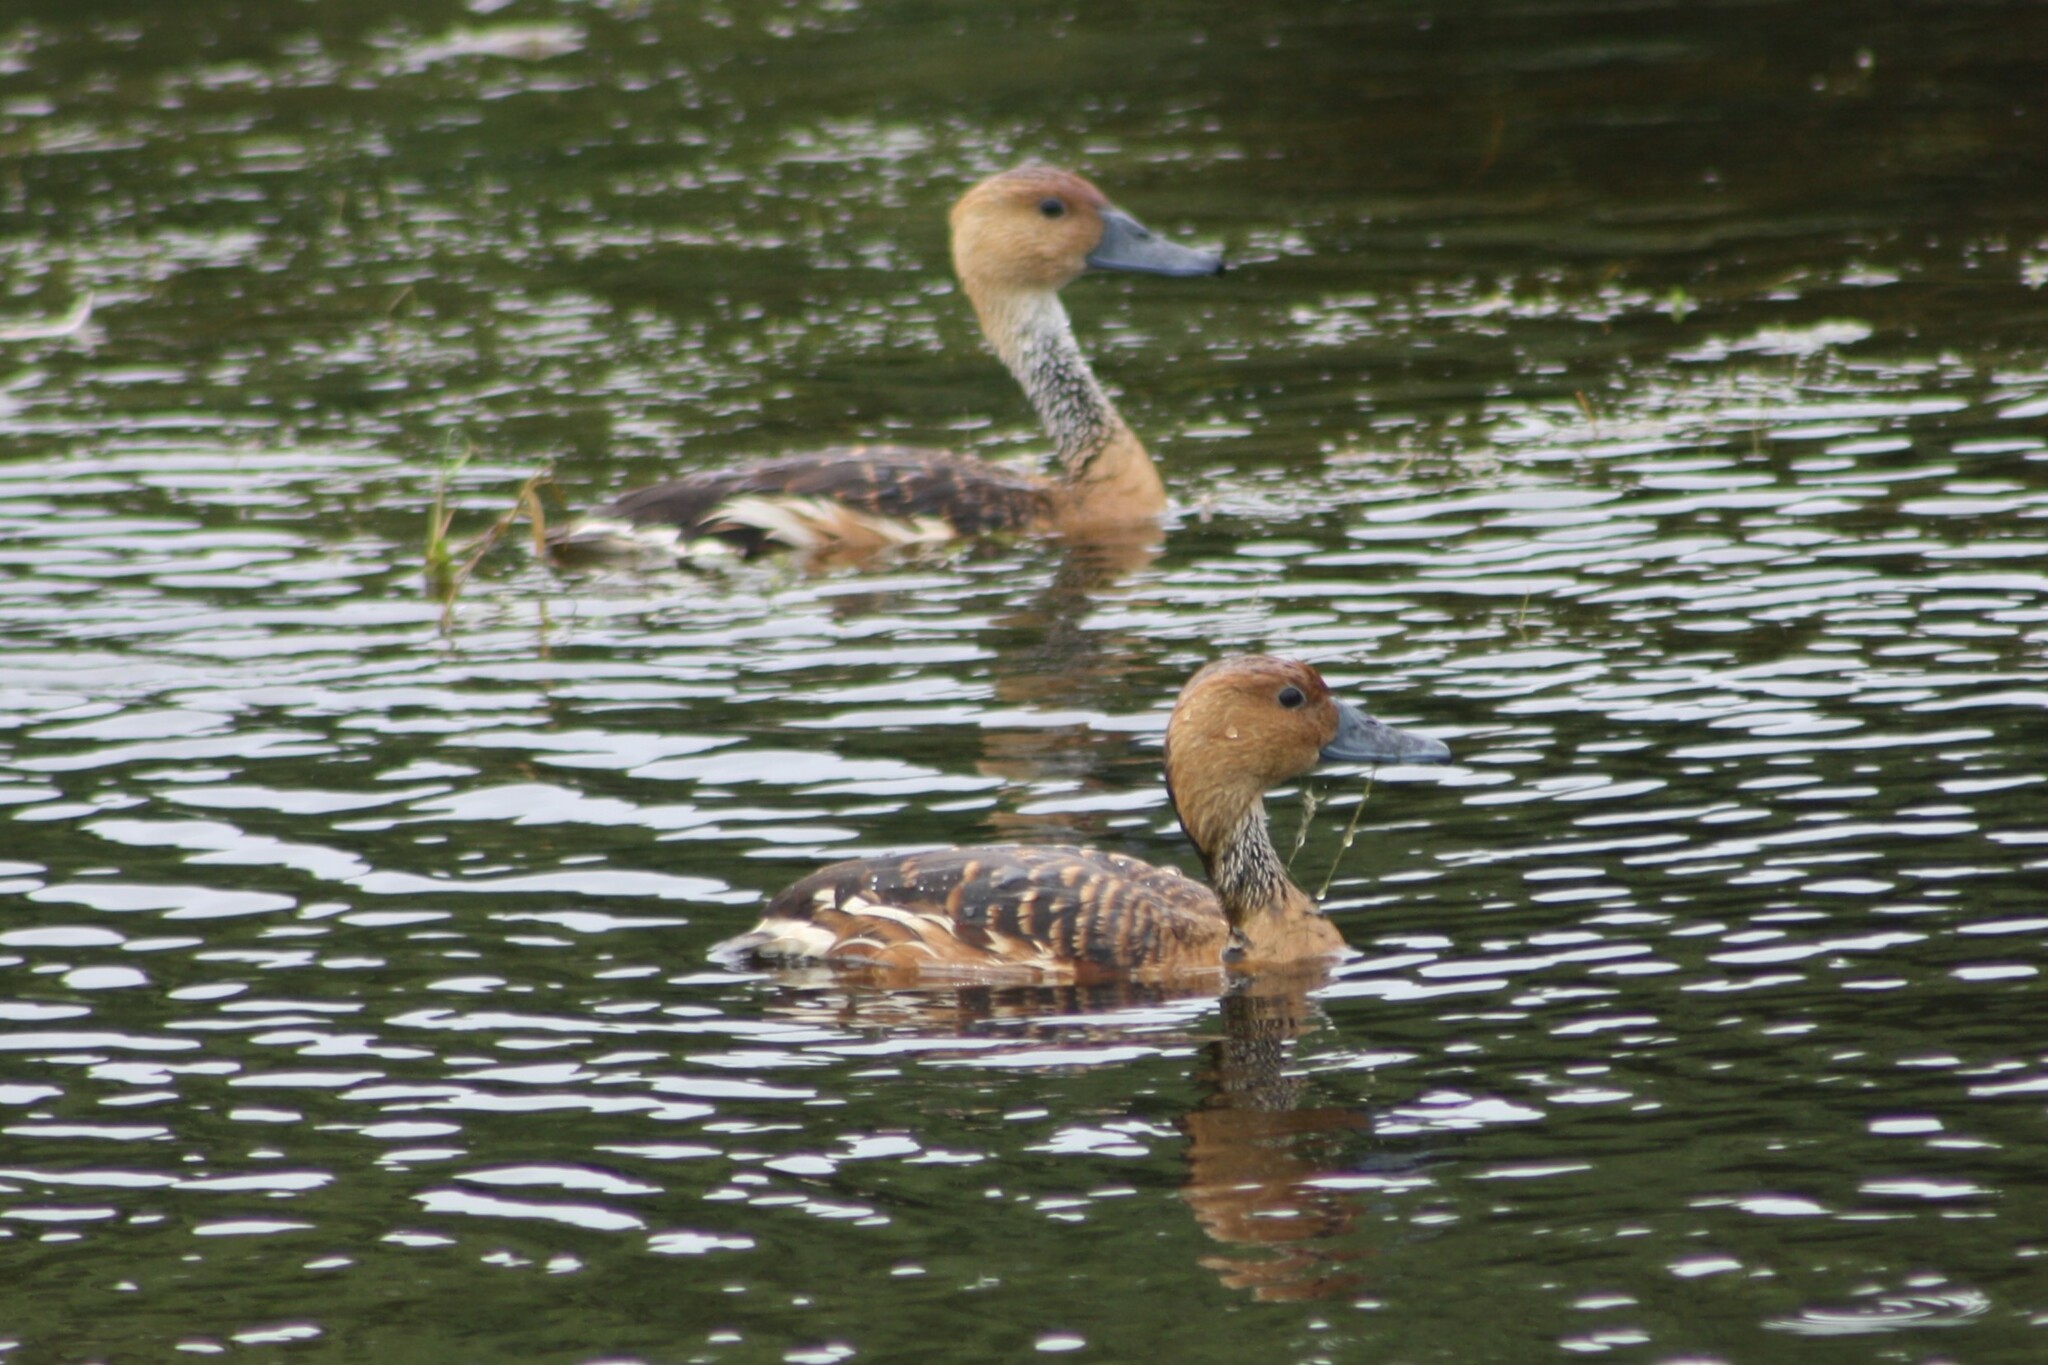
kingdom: Animalia
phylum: Chordata
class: Aves
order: Anseriformes
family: Anatidae
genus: Dendrocygna
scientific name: Dendrocygna bicolor
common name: Fulvous whistling duck
